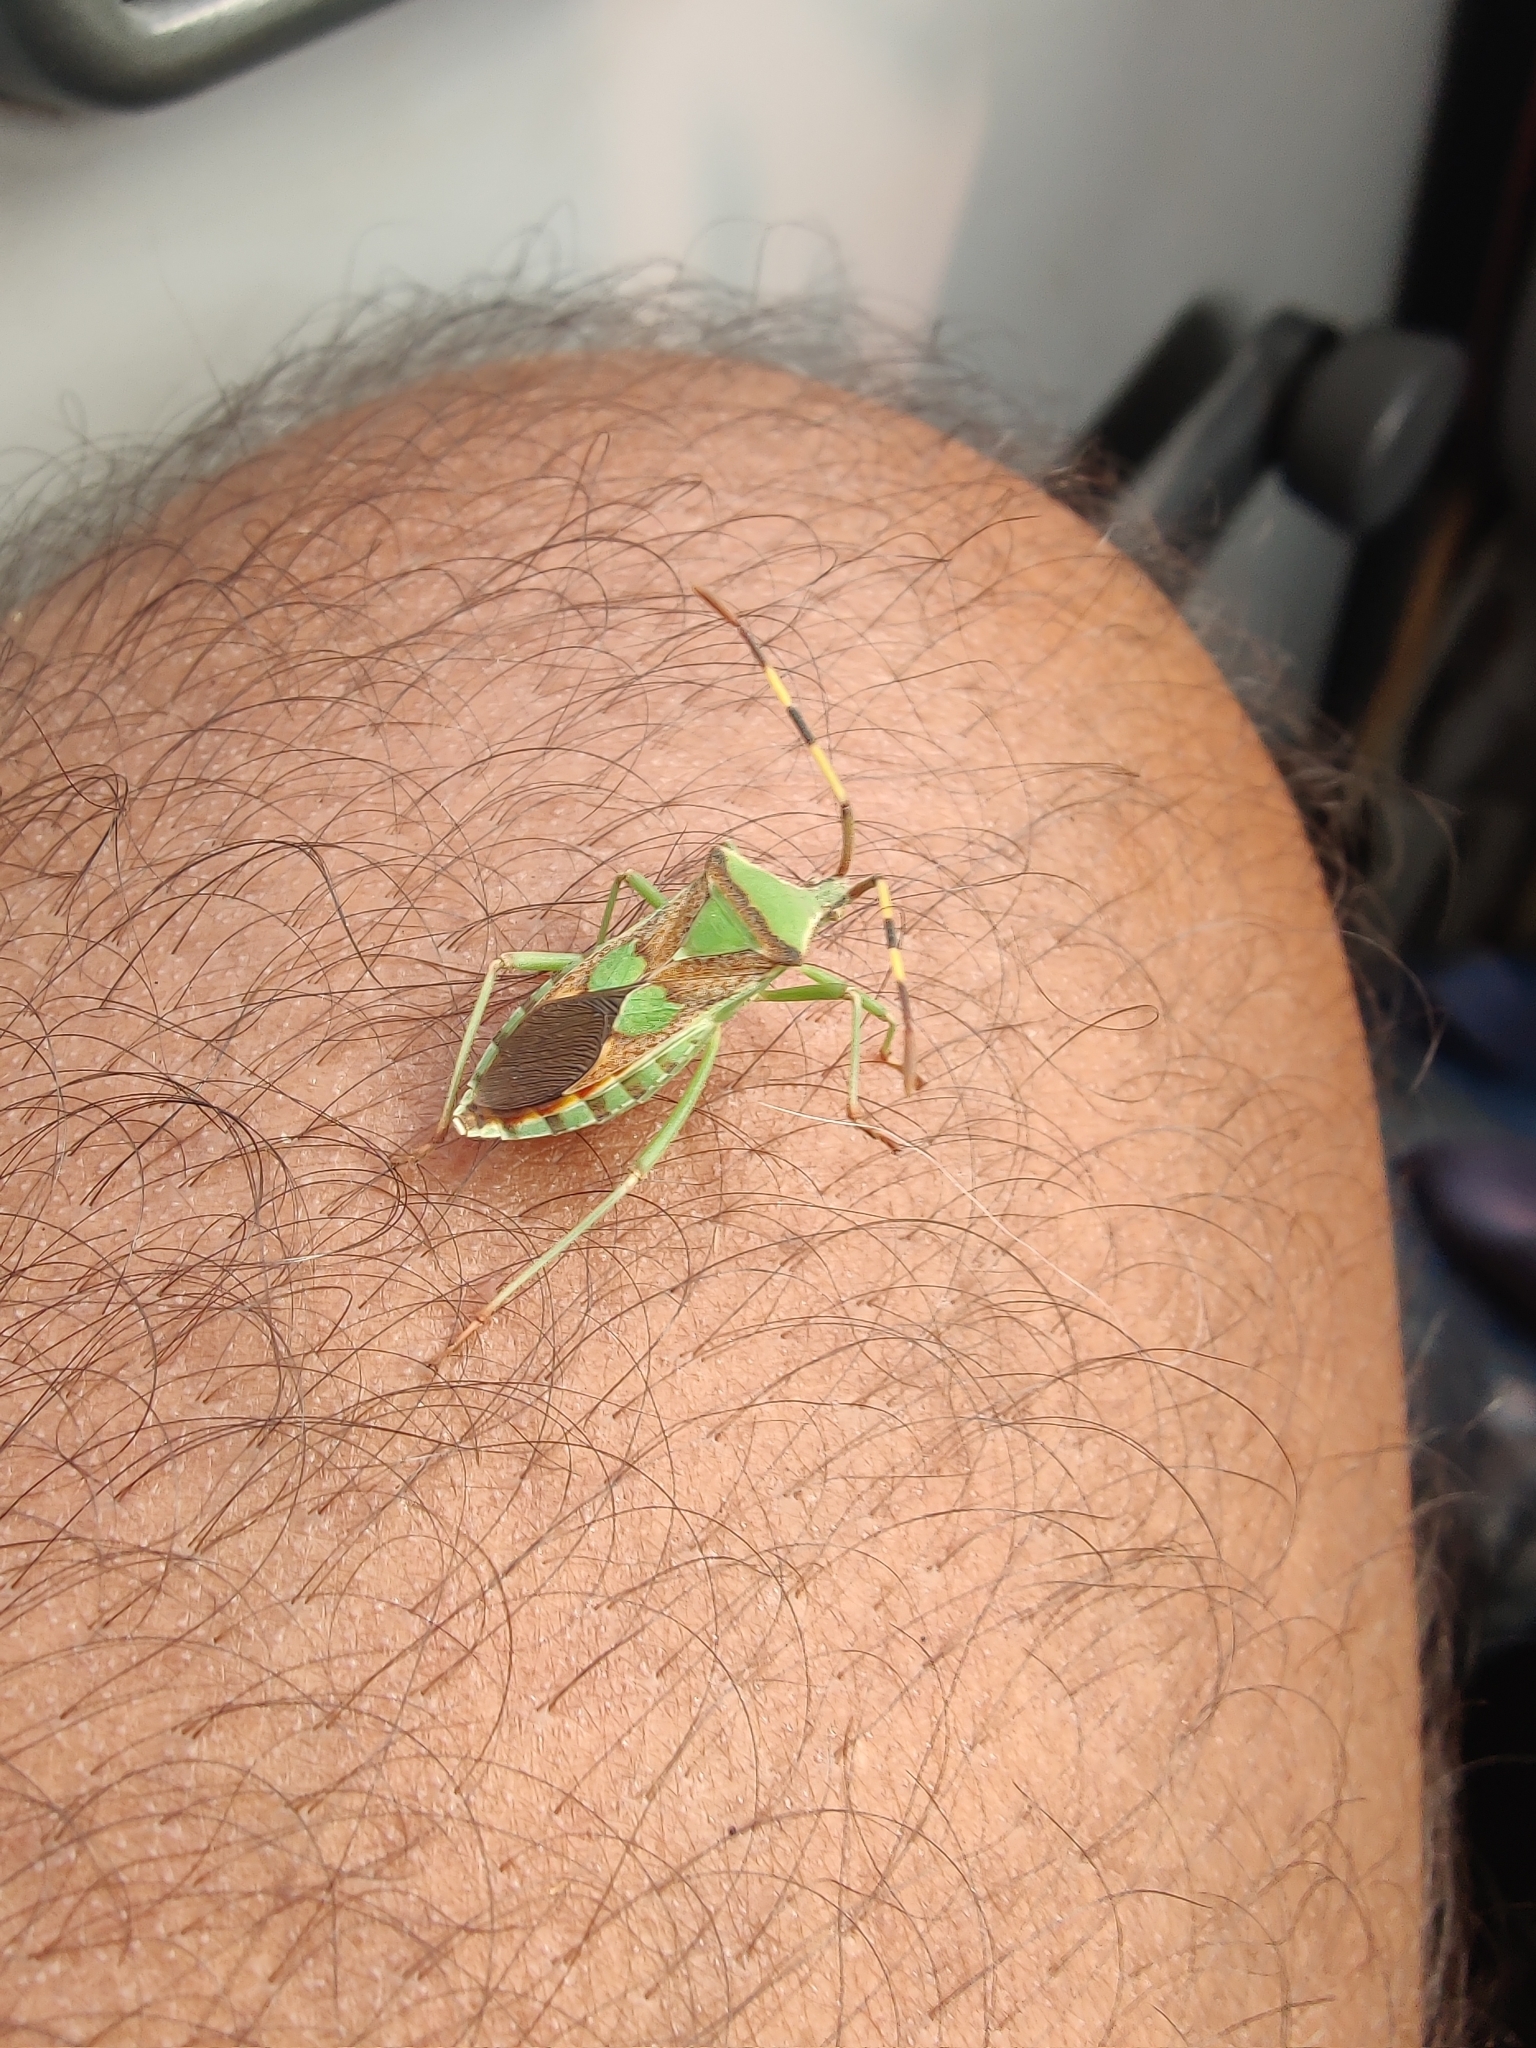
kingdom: Animalia
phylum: Arthropoda
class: Insecta
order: Hemiptera
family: Coreidae
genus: Prismatocerus
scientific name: Prismatocerus prominulus
